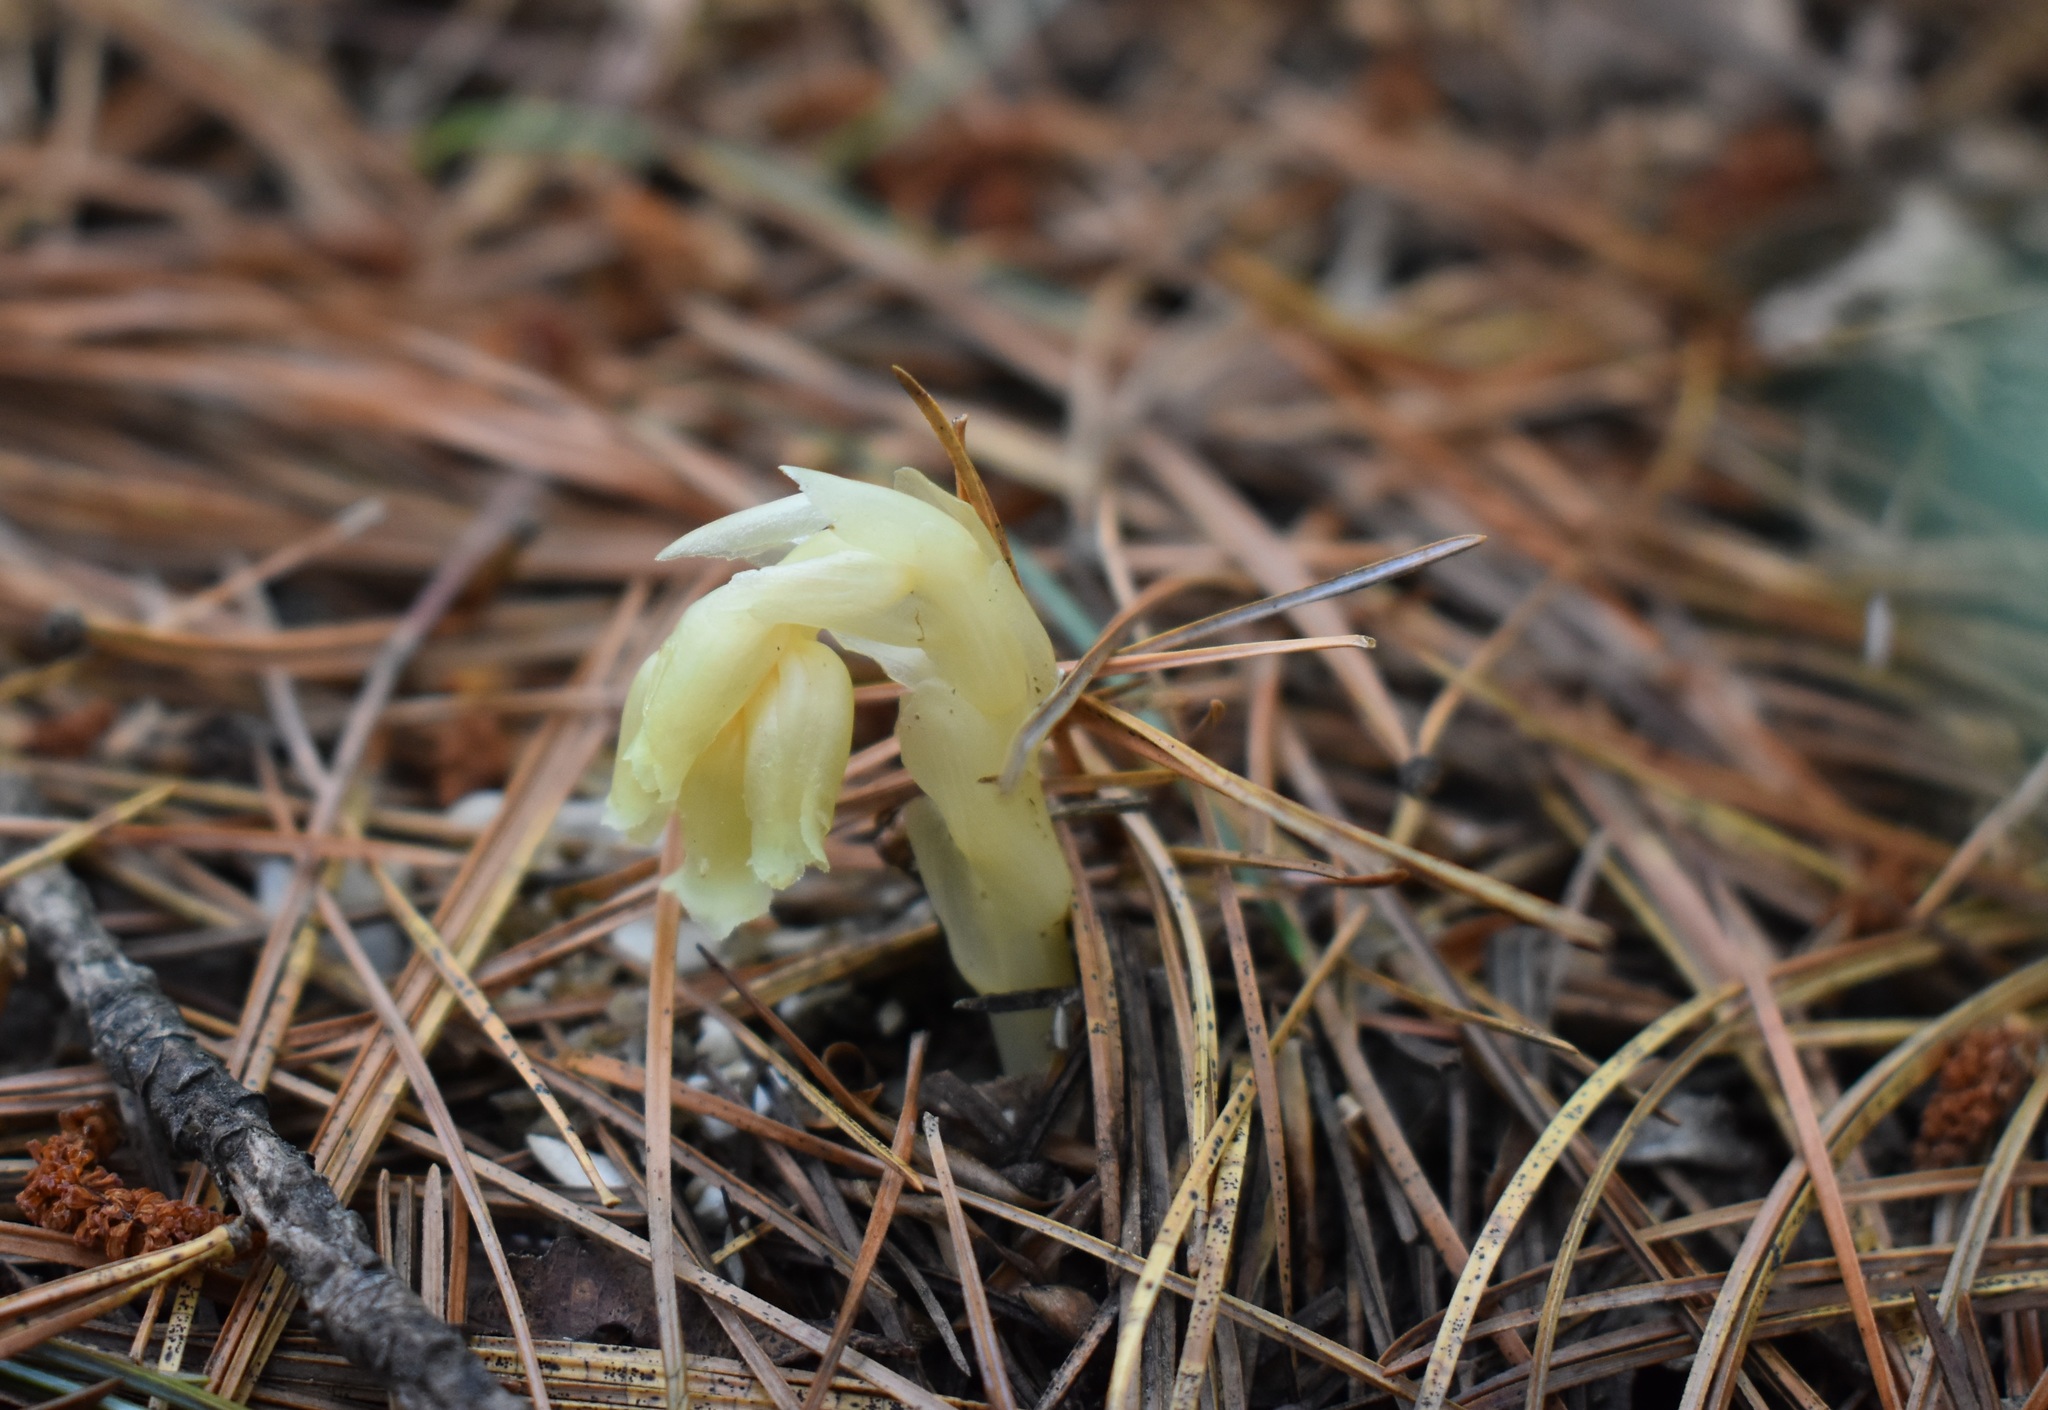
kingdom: Plantae
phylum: Tracheophyta
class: Magnoliopsida
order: Ericales
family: Ericaceae
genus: Hypopitys
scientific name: Hypopitys monotropa
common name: Yellow bird's-nest
